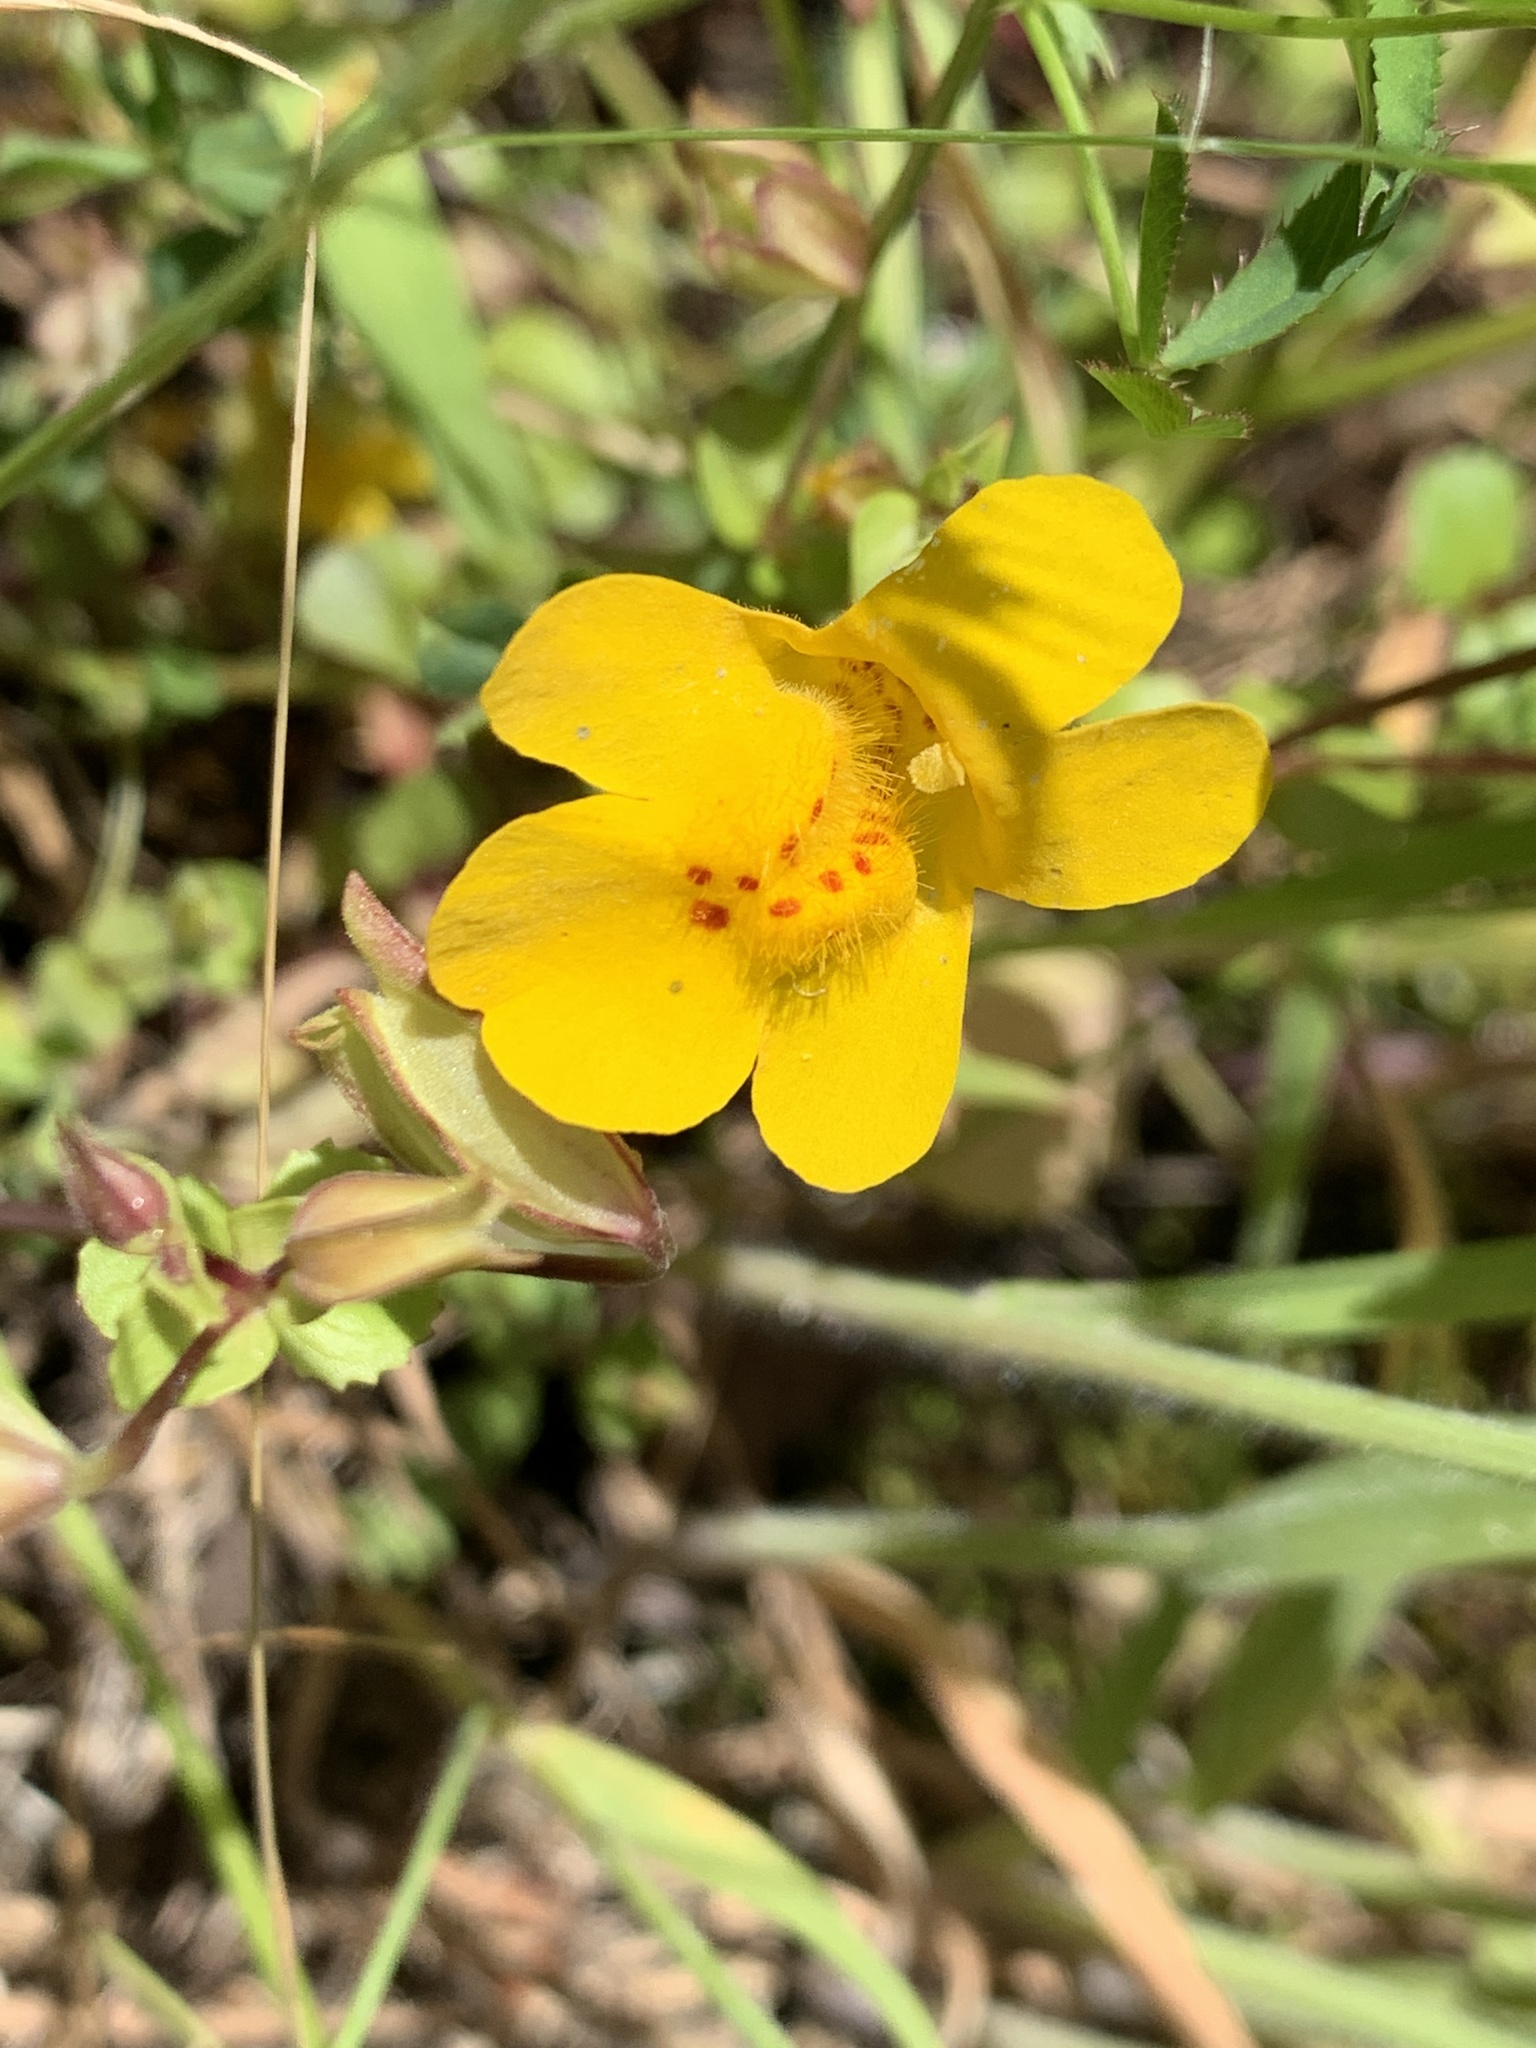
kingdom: Plantae
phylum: Tracheophyta
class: Magnoliopsida
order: Lamiales
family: Phrymaceae
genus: Erythranthe
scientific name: Erythranthe guttata
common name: Monkeyflower
